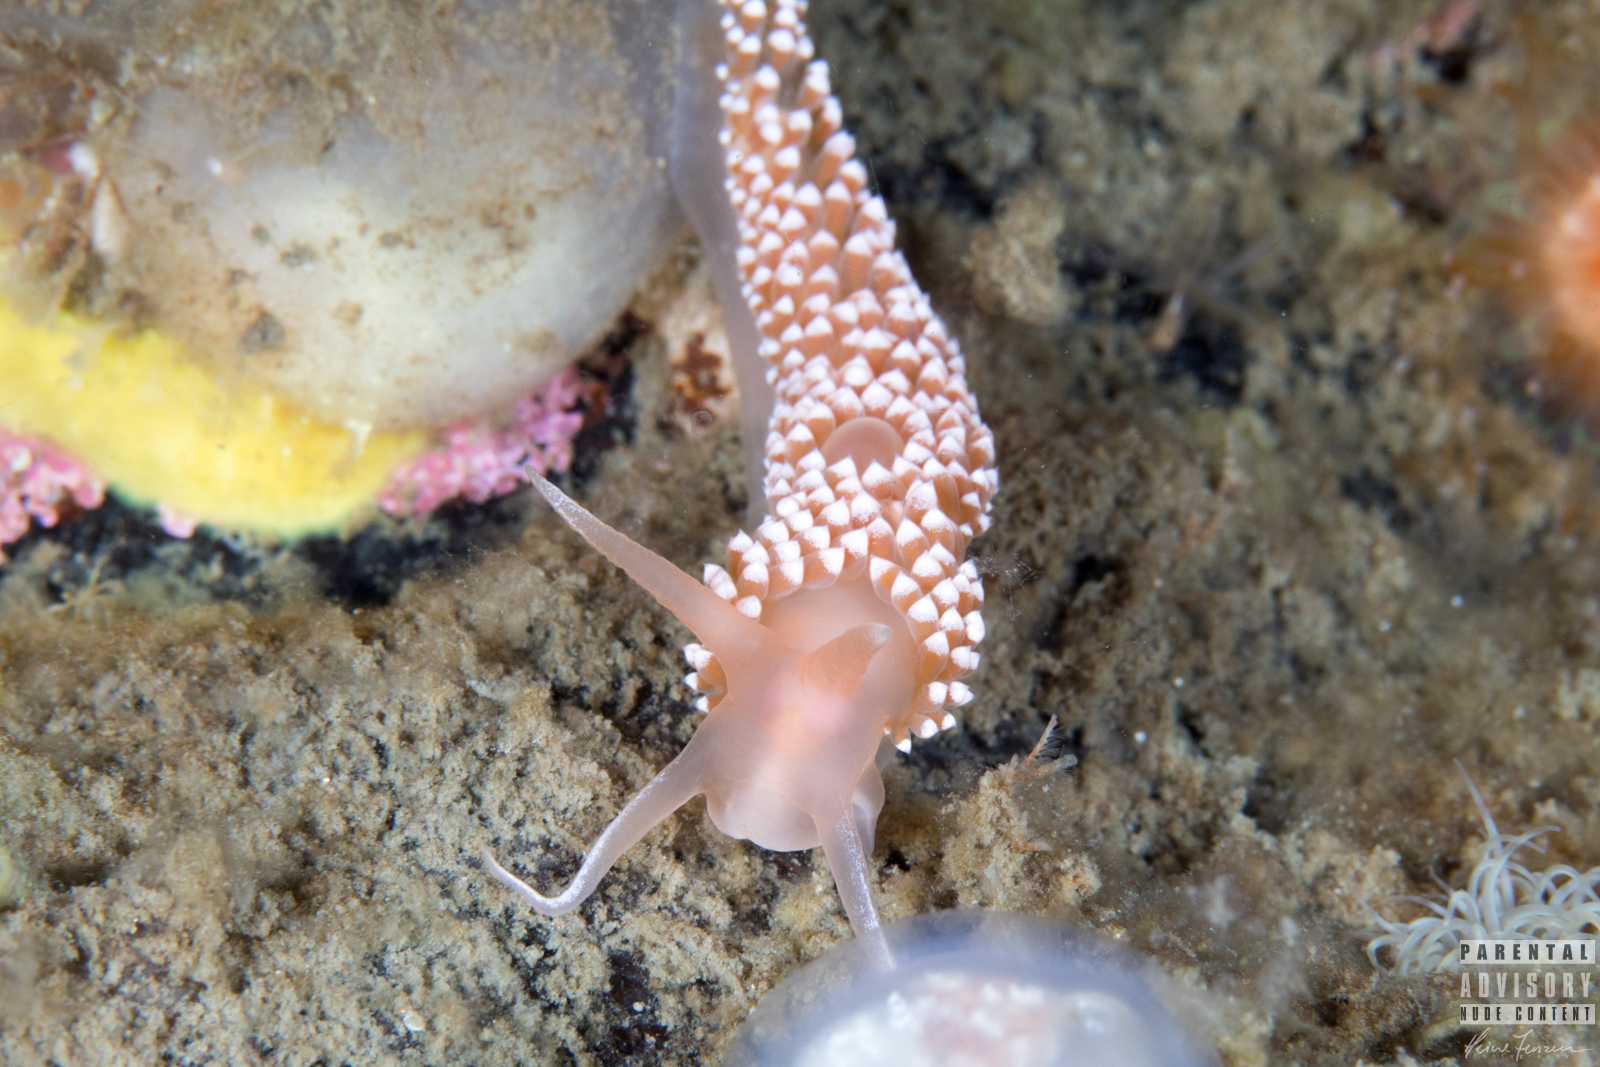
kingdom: Animalia
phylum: Mollusca
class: Gastropoda
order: Nudibranchia
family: Coryphellidae
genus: Coryphella
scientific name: Coryphella verrucosa
